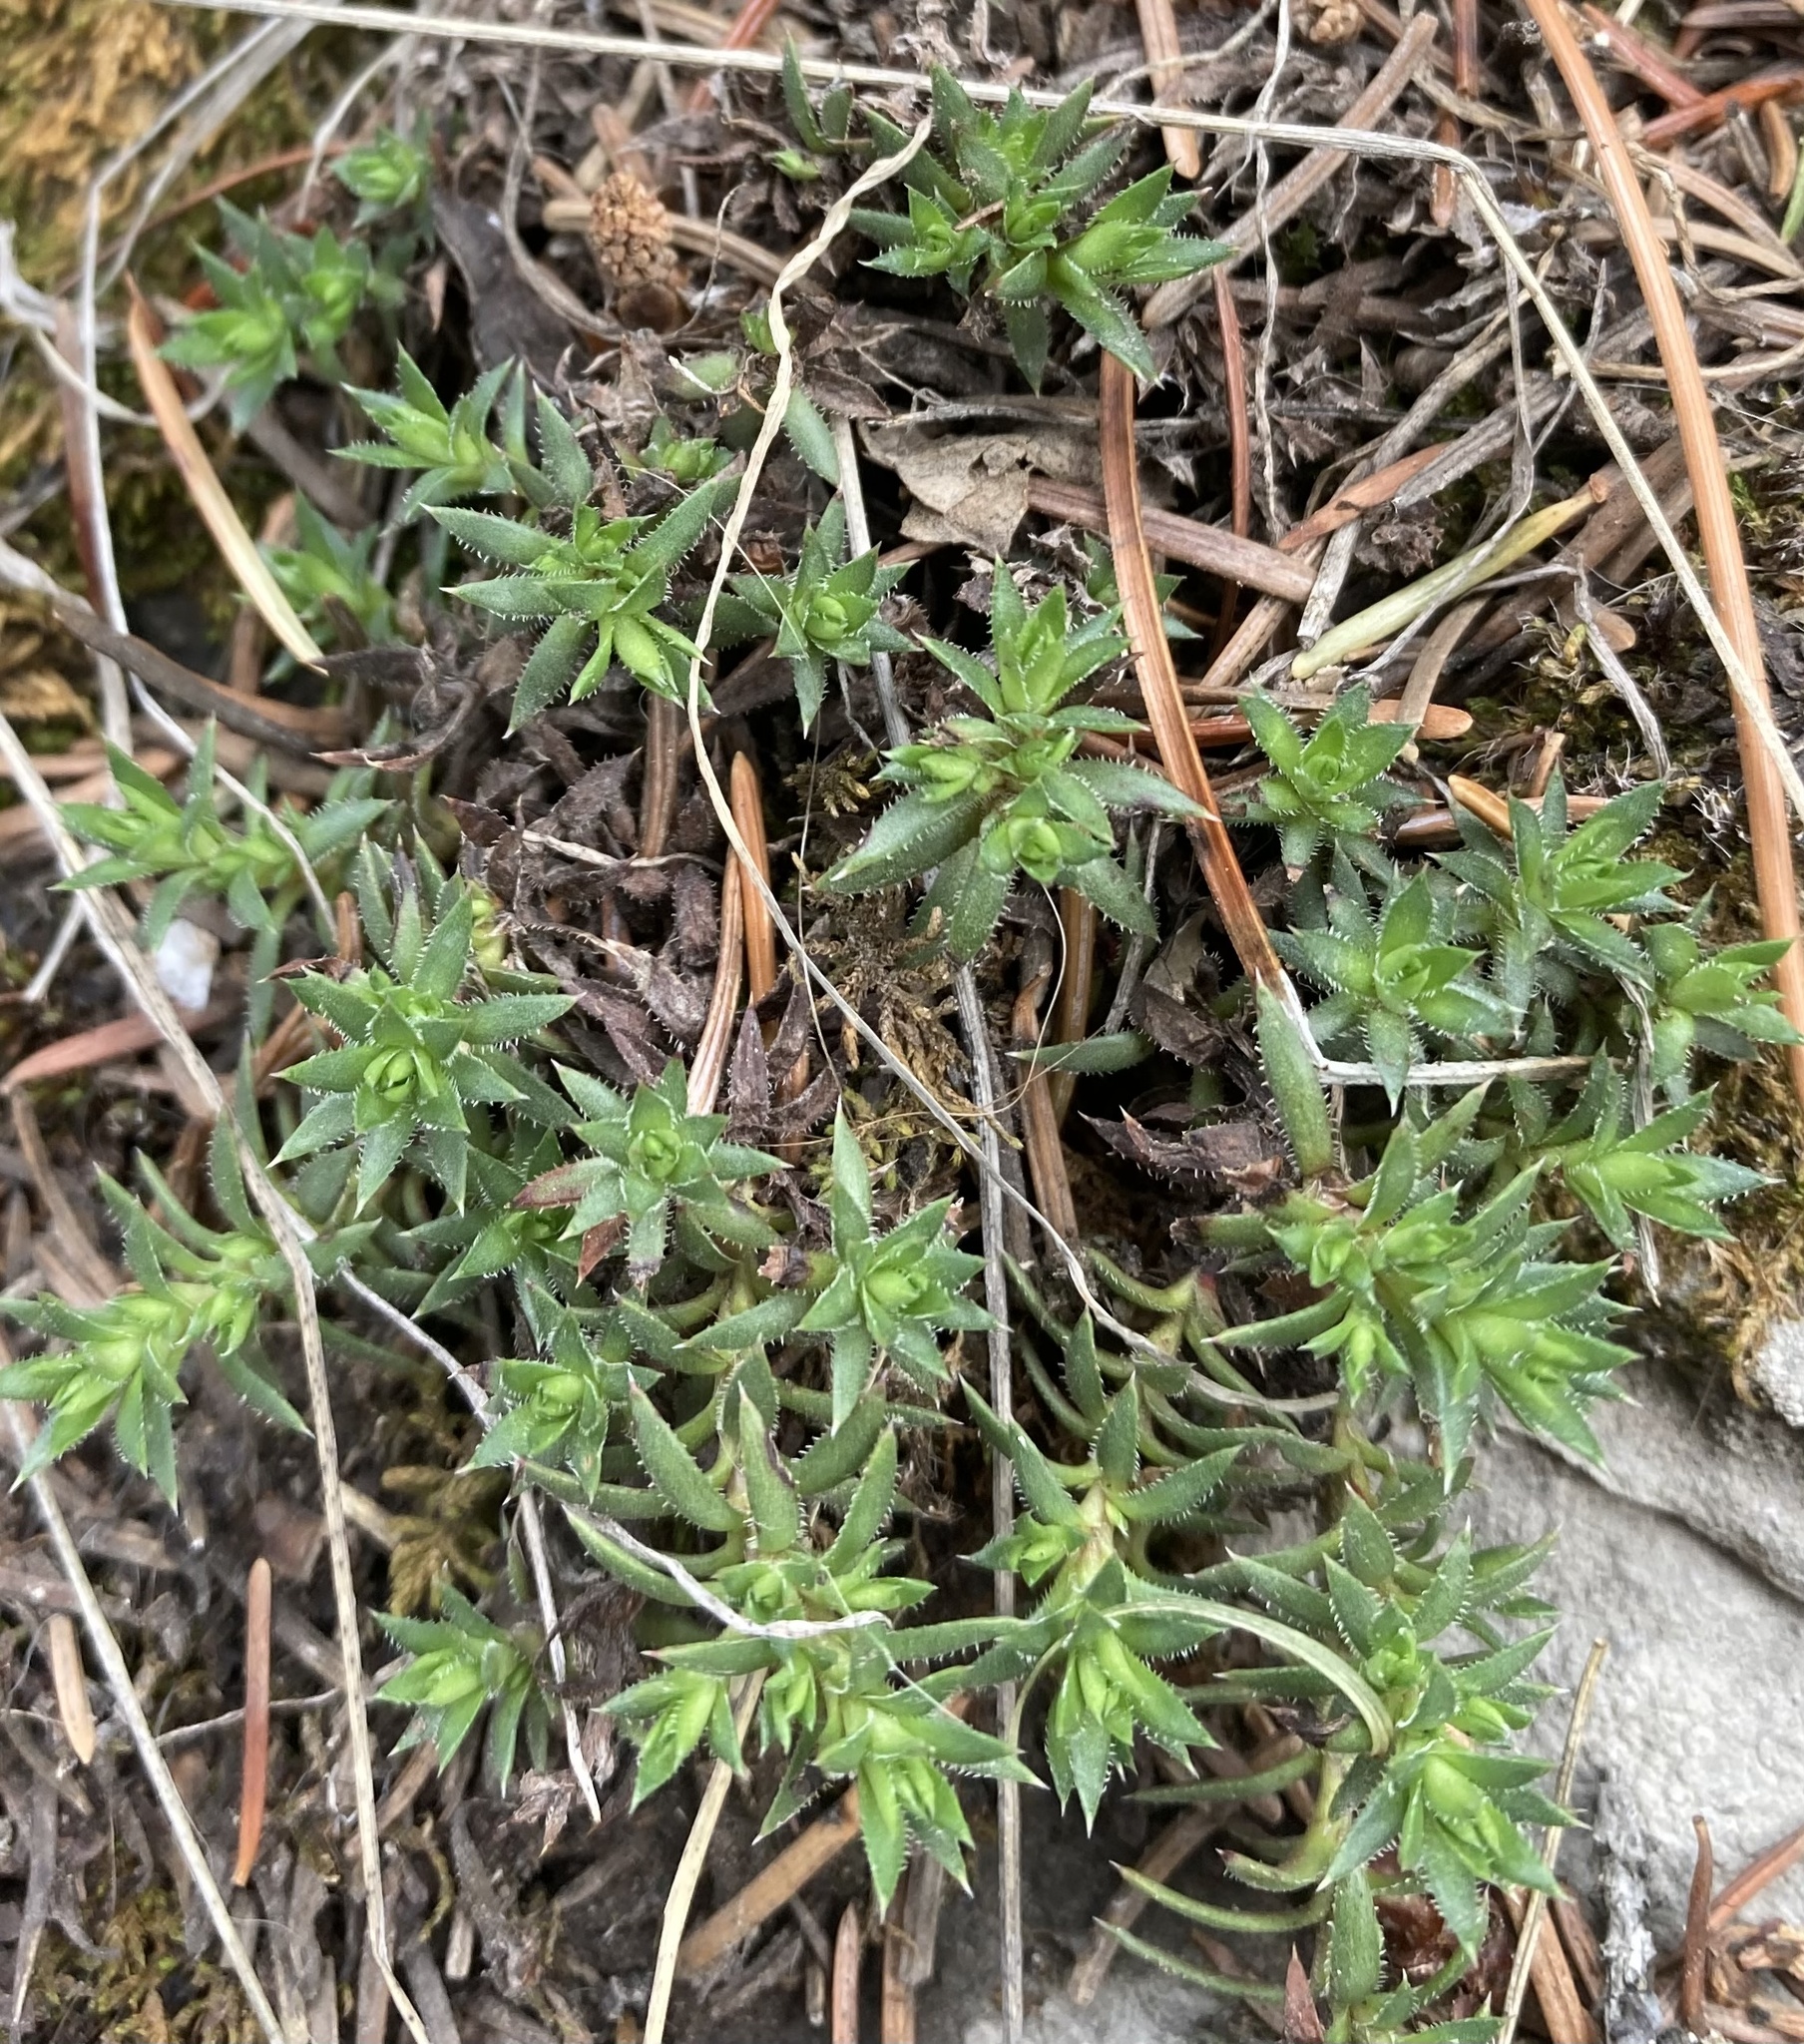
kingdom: Plantae
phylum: Tracheophyta
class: Magnoliopsida
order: Saxifragales
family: Saxifragaceae
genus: Saxifraga
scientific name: Saxifraga bronchialis
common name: Matted saxifrage
